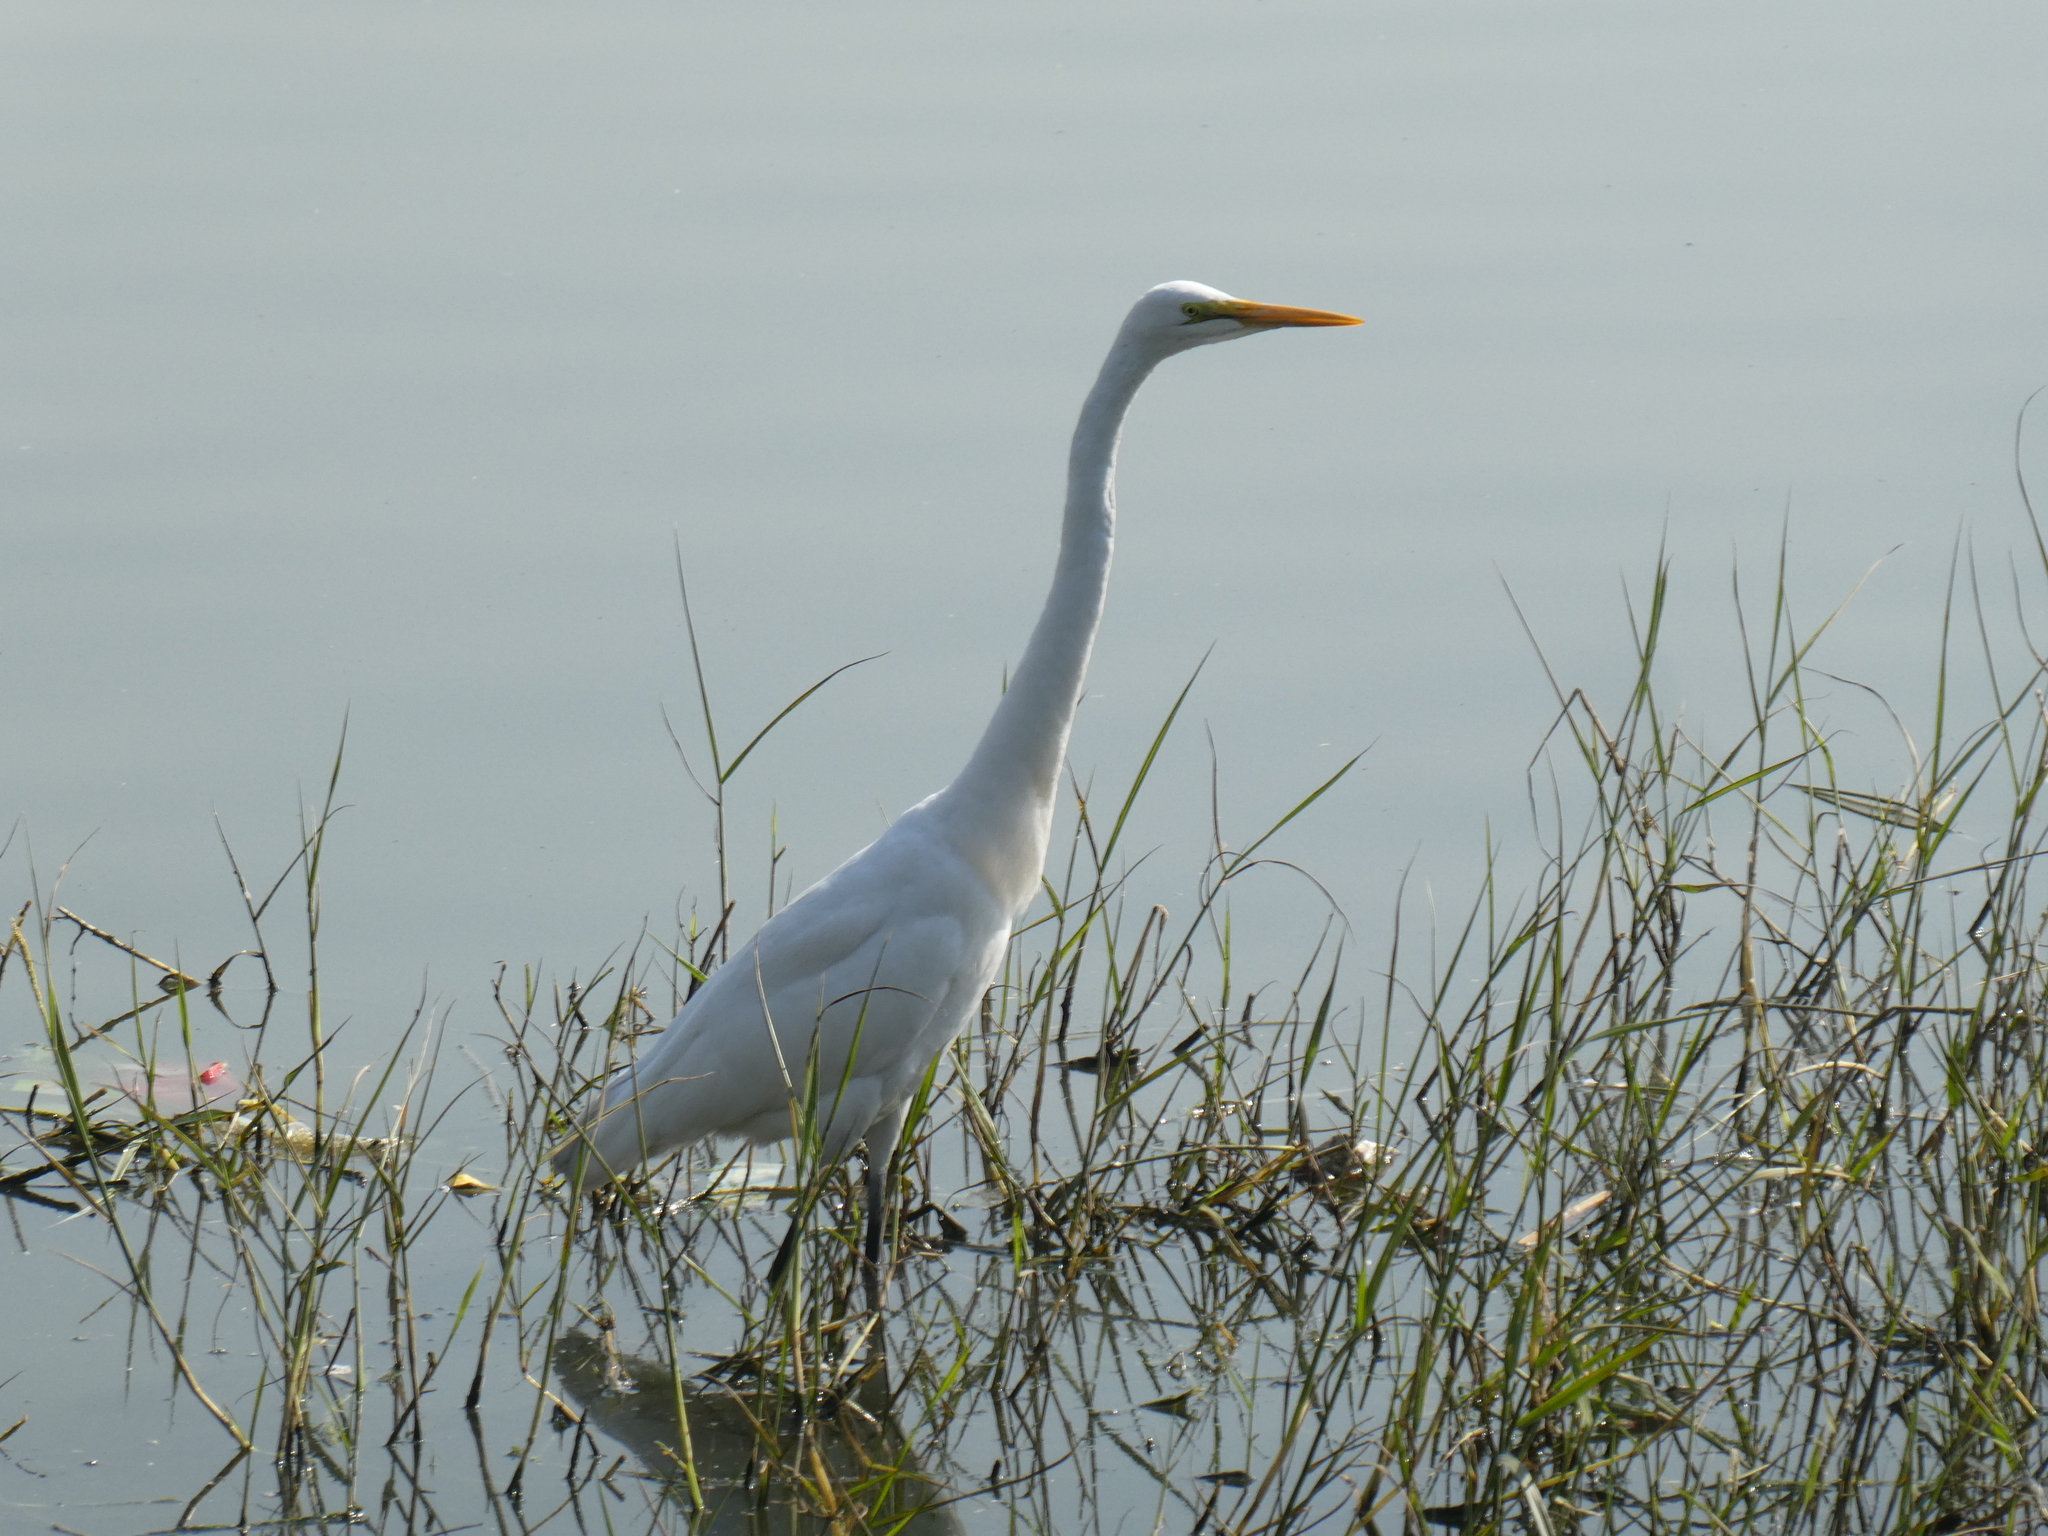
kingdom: Animalia
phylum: Chordata
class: Aves
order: Pelecaniformes
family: Ardeidae
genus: Ardea
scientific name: Ardea alba
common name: Great egret
